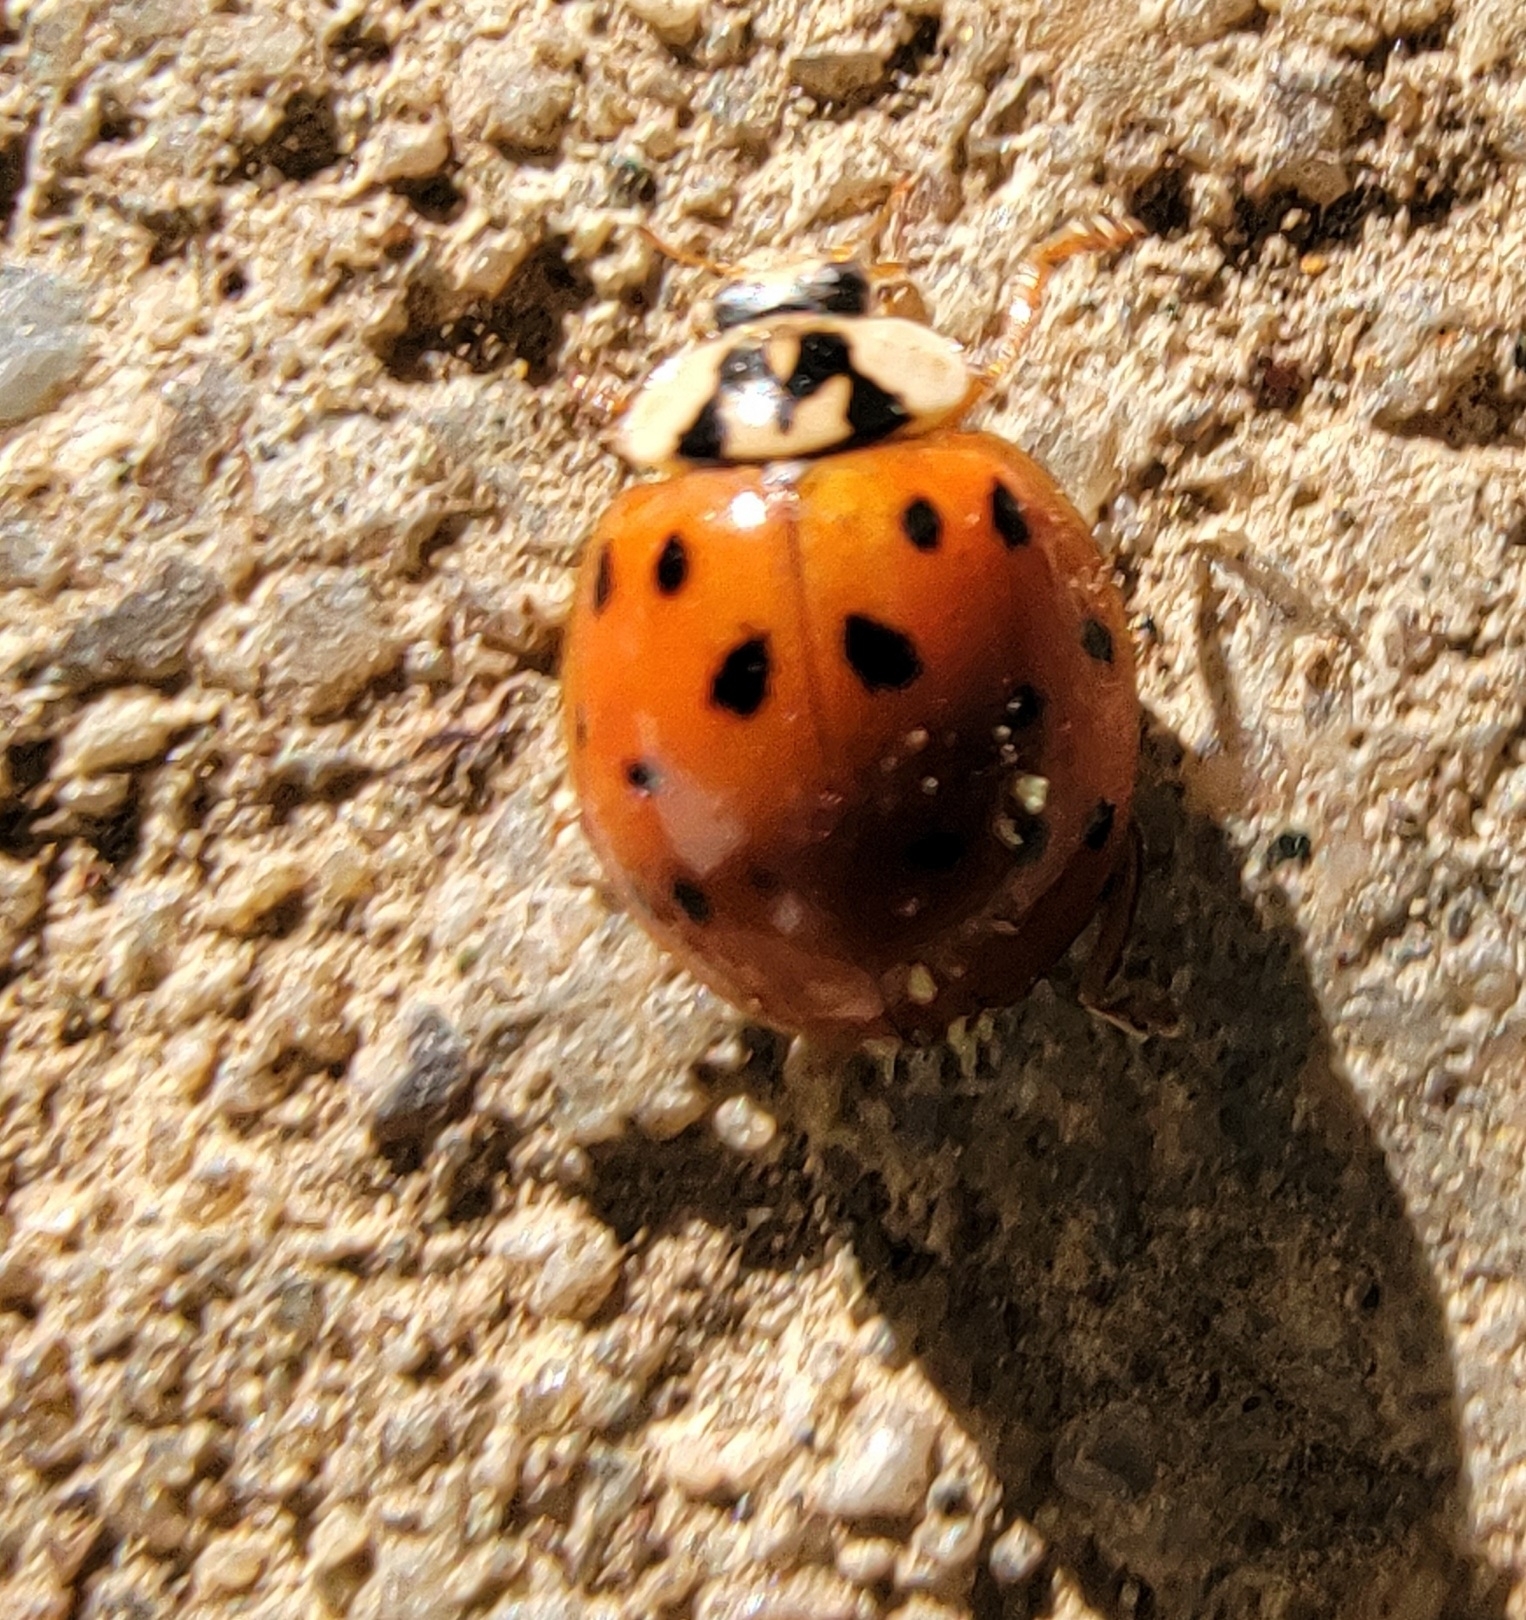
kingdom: Animalia
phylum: Arthropoda
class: Insecta
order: Coleoptera
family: Coccinellidae
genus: Harmonia
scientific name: Harmonia axyridis
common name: Harlequin ladybird
